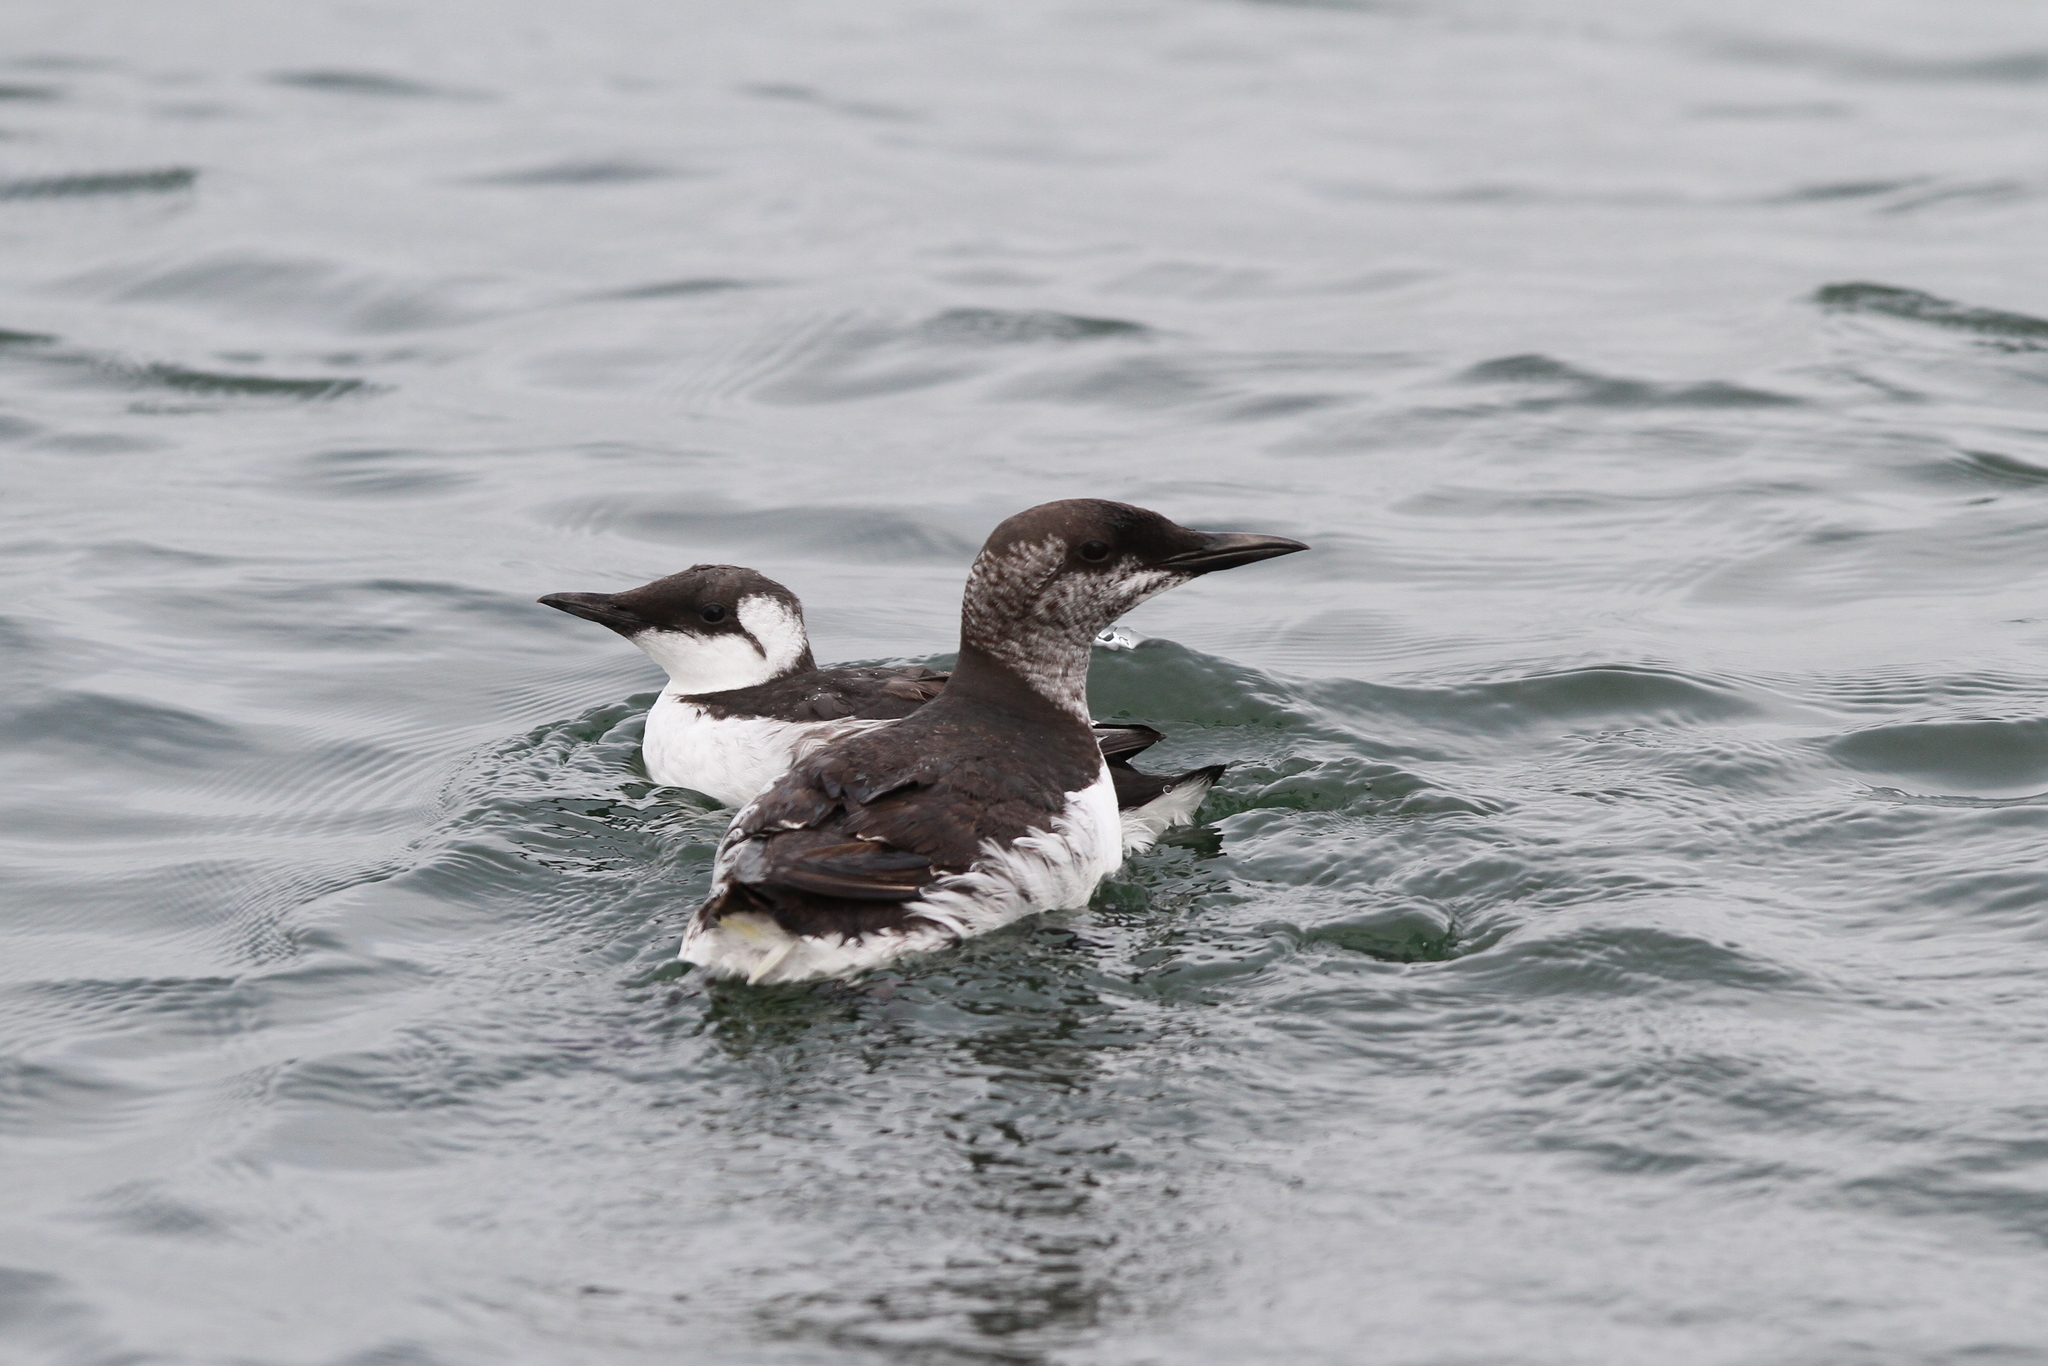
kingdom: Animalia
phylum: Chordata
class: Aves
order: Charadriiformes
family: Alcidae
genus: Uria
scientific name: Uria aalge
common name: Common murre
